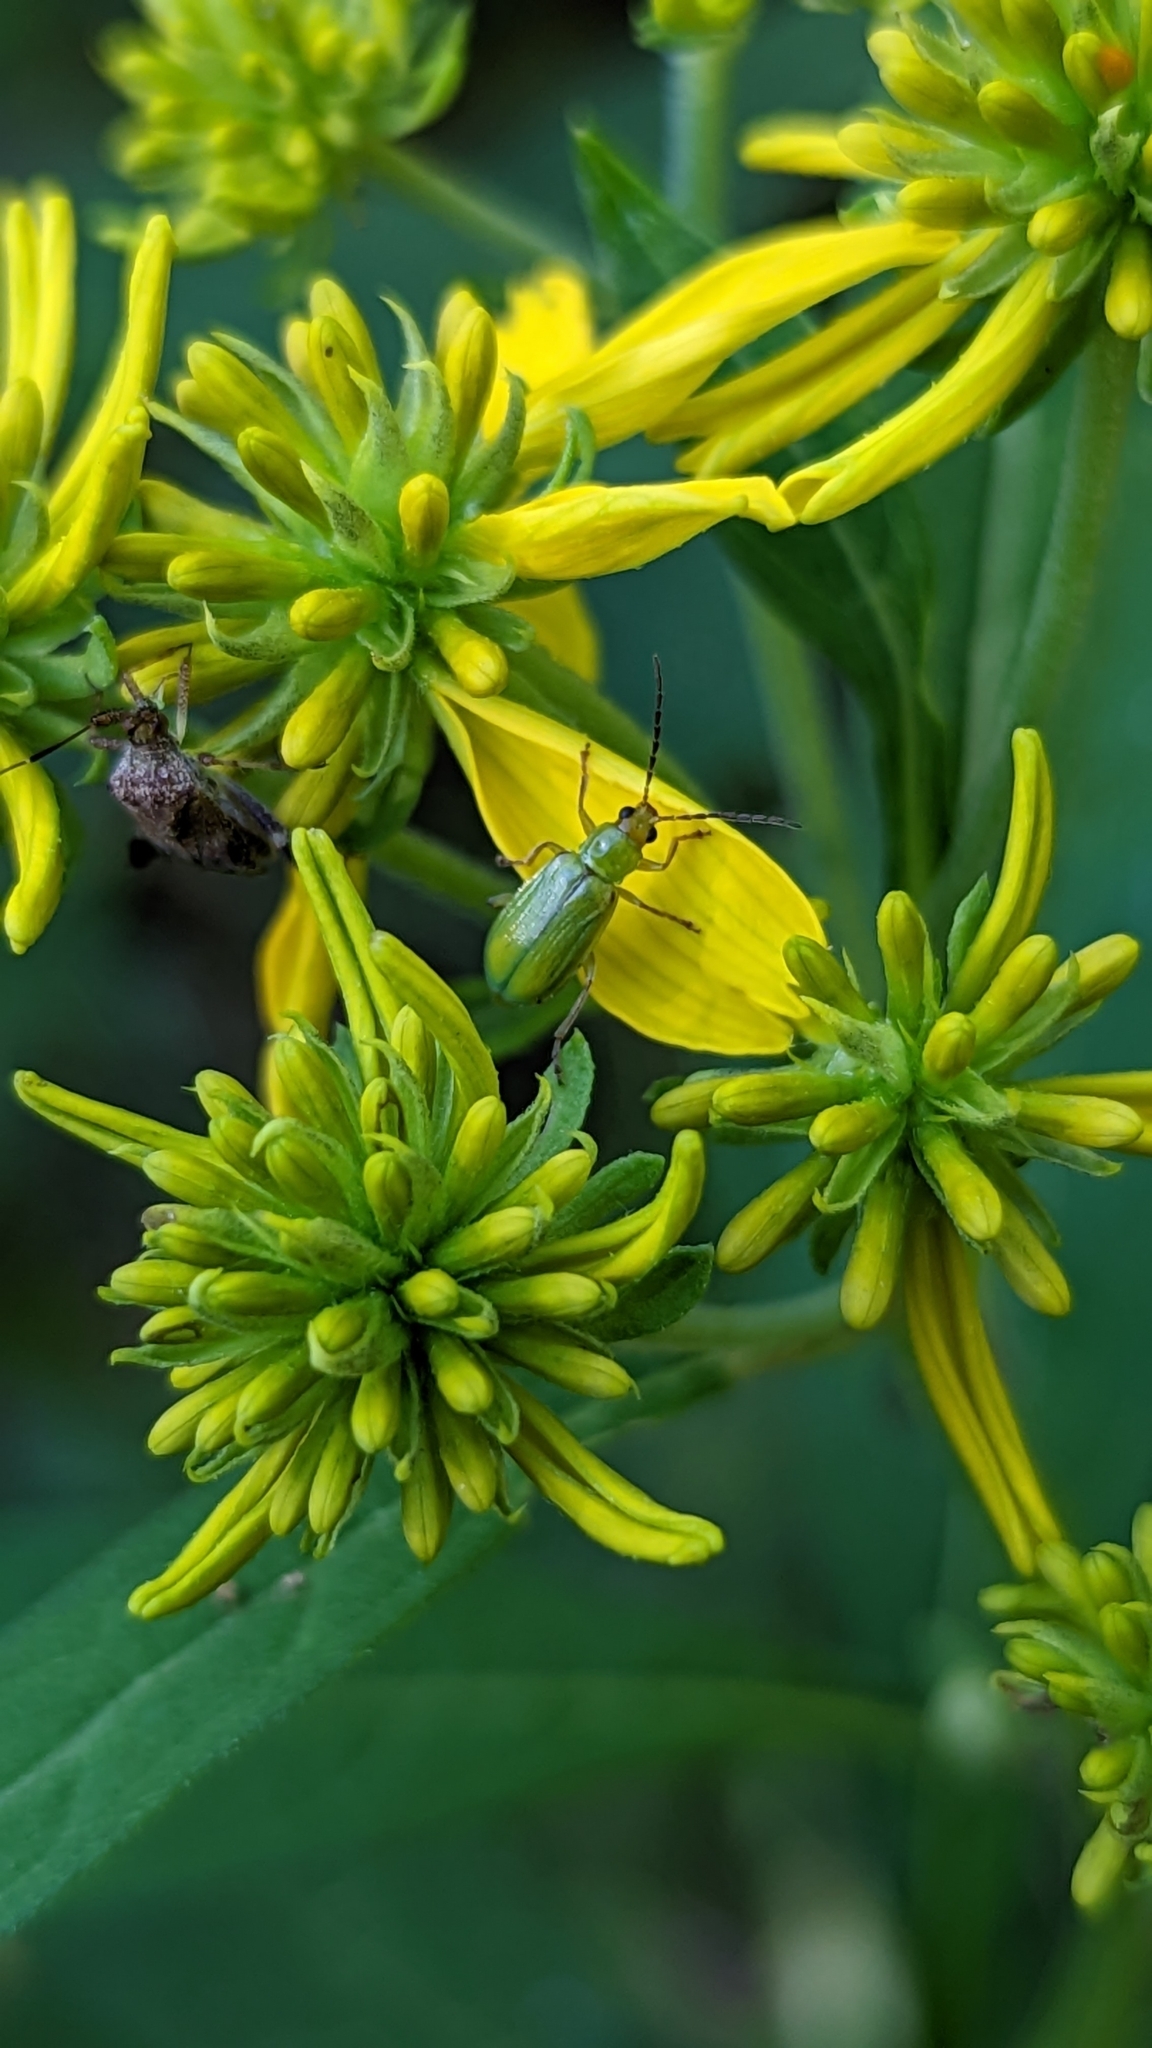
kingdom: Animalia
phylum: Arthropoda
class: Insecta
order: Coleoptera
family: Chrysomelidae
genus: Diabrotica
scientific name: Diabrotica barberi
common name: Northern corn rootworm
